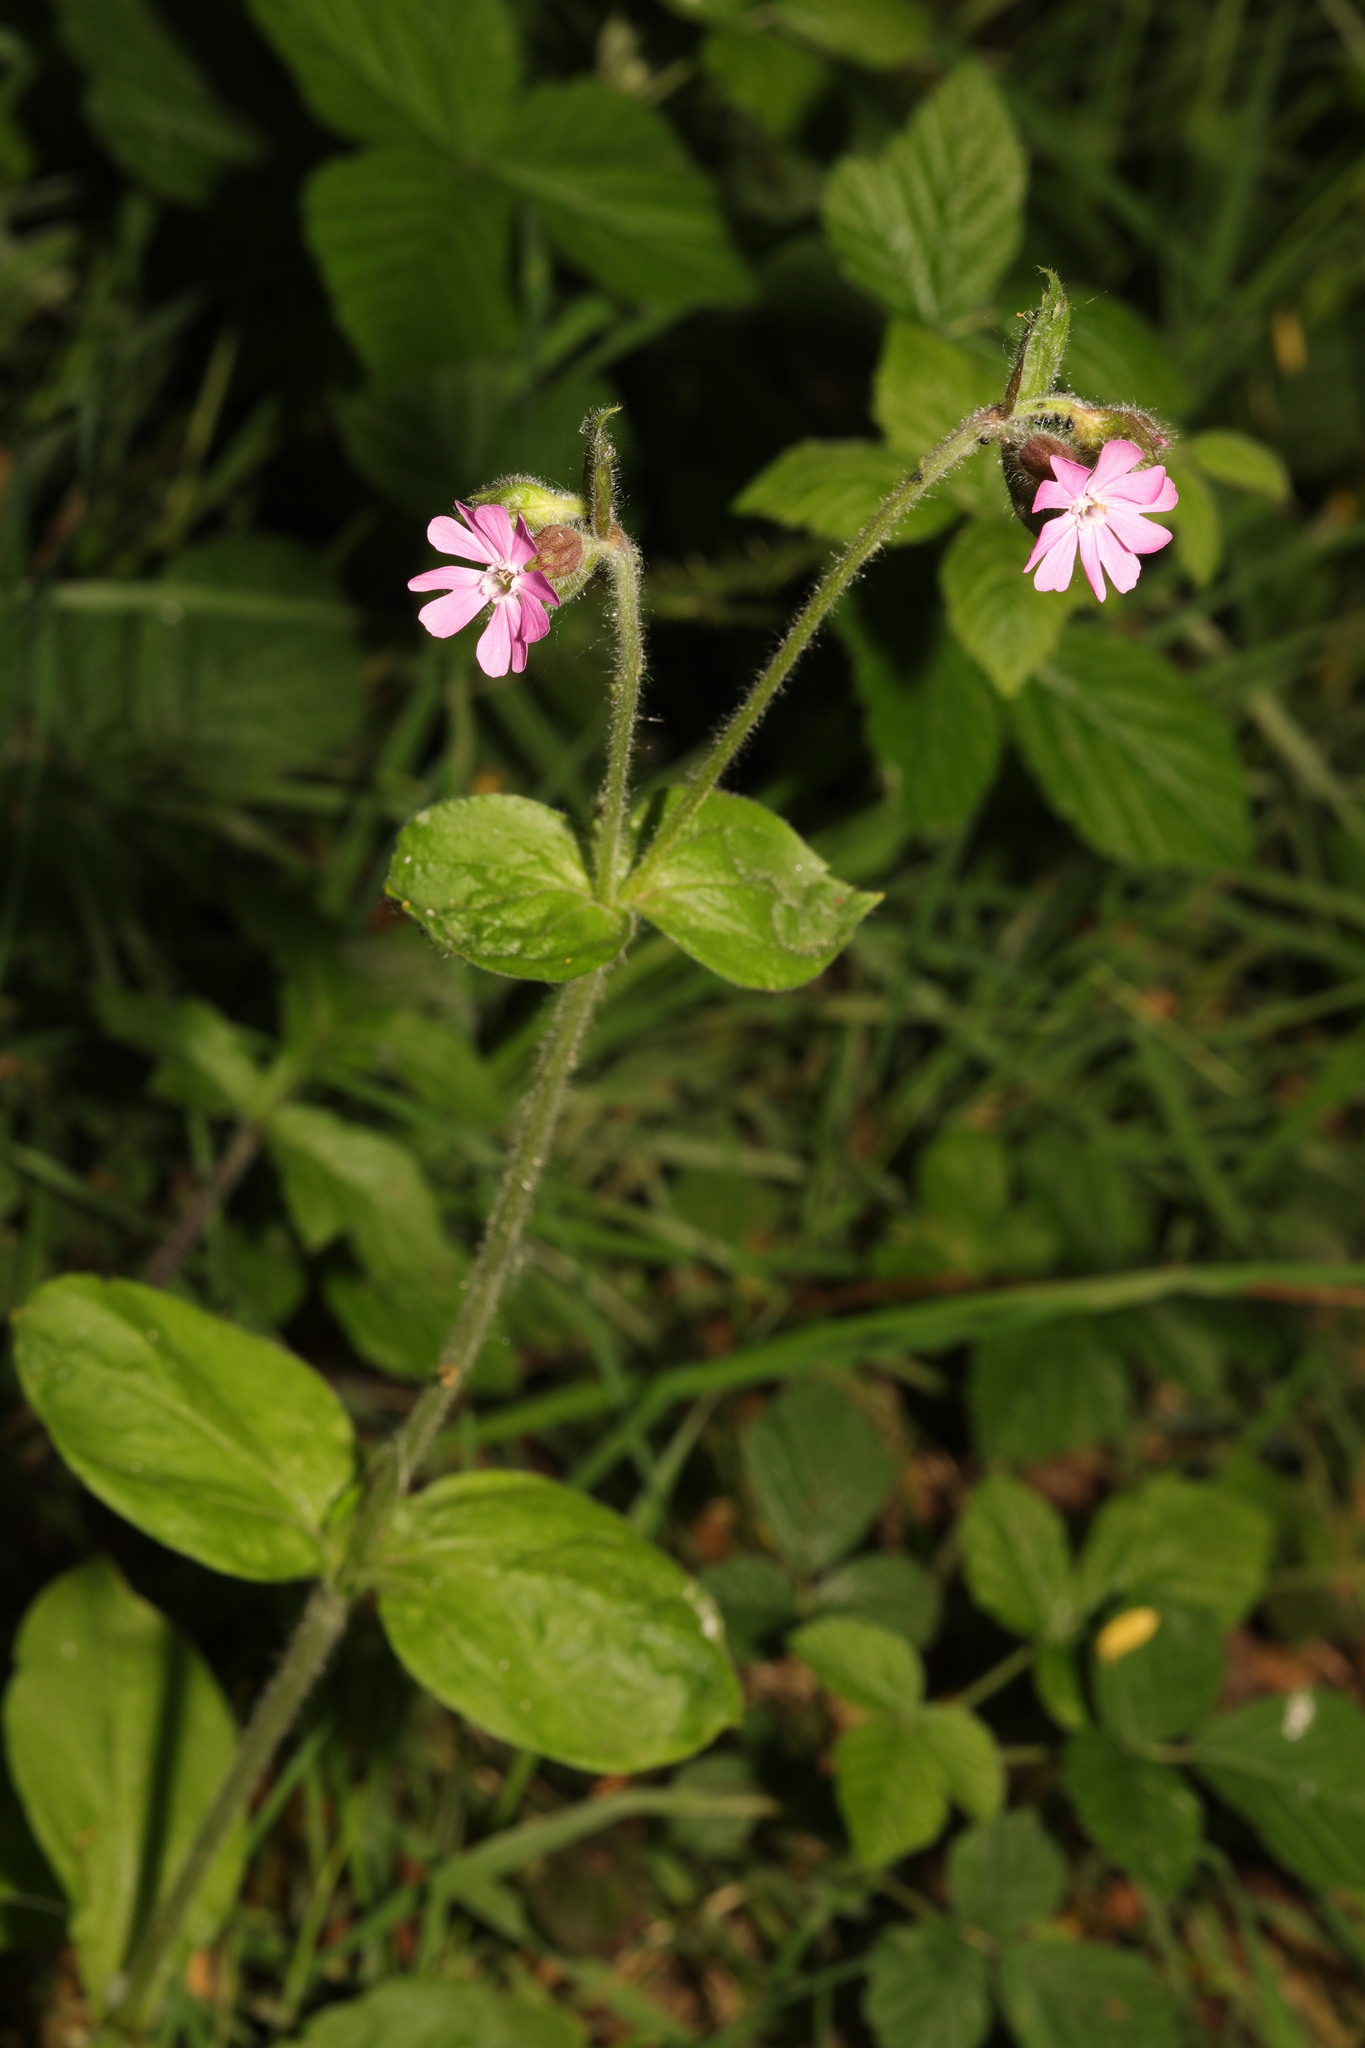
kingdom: Plantae
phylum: Tracheophyta
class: Magnoliopsida
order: Caryophyllales
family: Caryophyllaceae
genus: Silene
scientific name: Silene dioica
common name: Red campion
